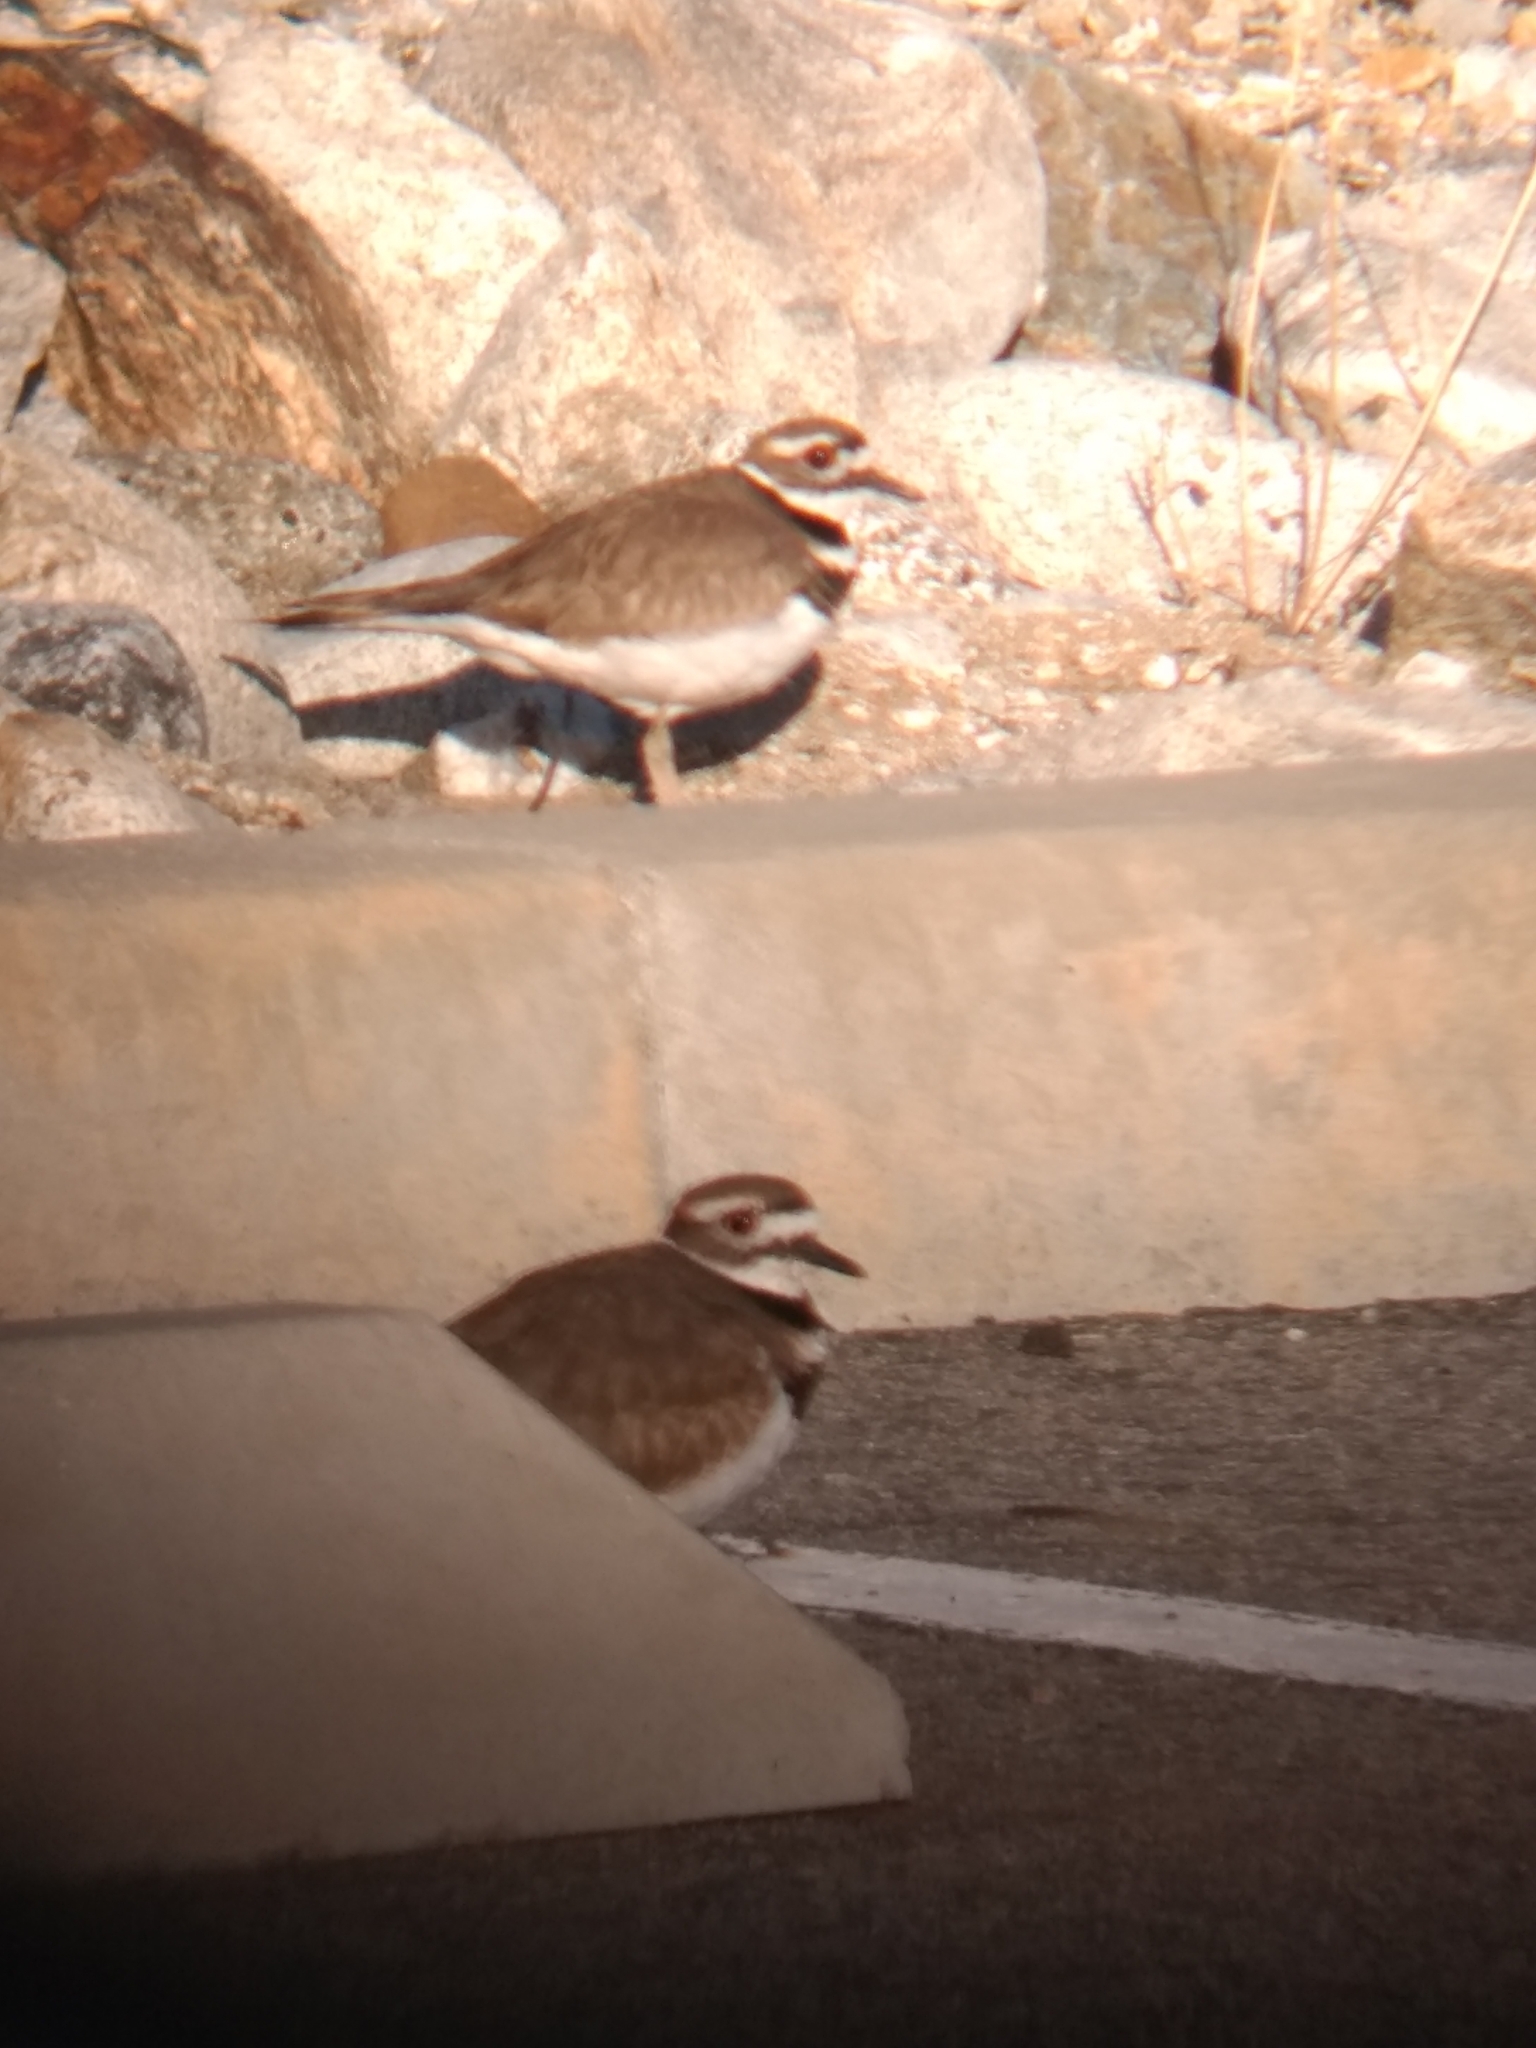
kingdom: Animalia
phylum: Chordata
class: Aves
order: Charadriiformes
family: Charadriidae
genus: Charadrius
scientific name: Charadrius vociferus
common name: Killdeer
